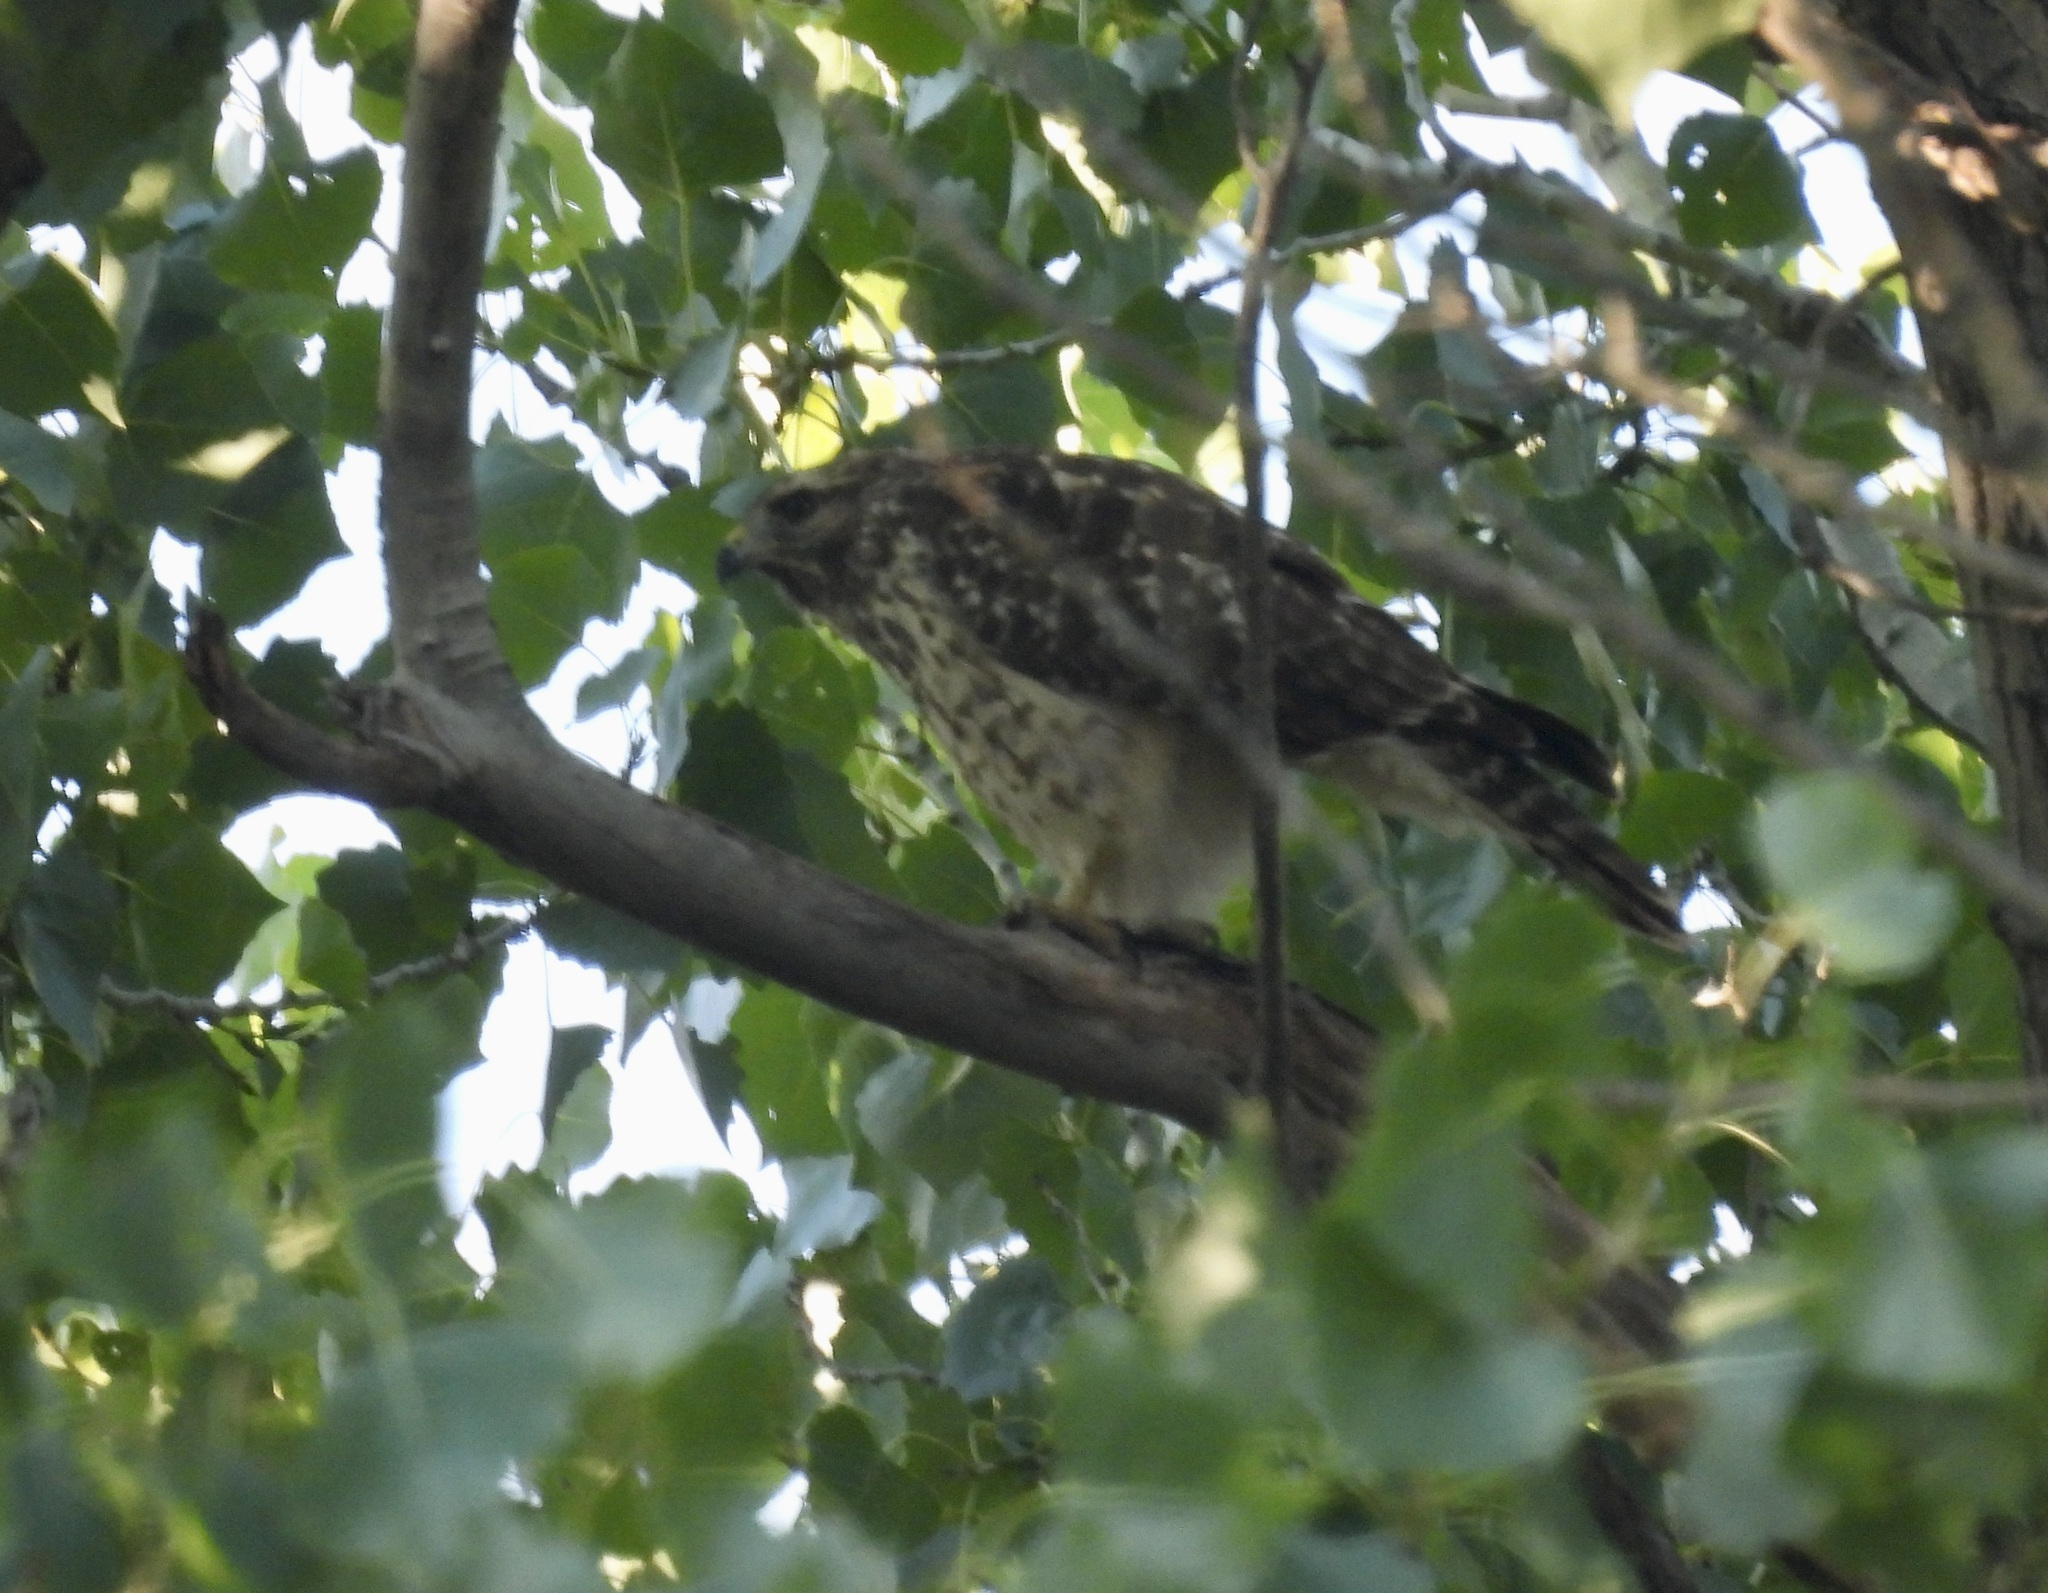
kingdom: Animalia
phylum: Chordata
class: Aves
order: Accipitriformes
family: Accipitridae
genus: Buteo
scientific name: Buteo lineatus
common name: Red-shouldered hawk
